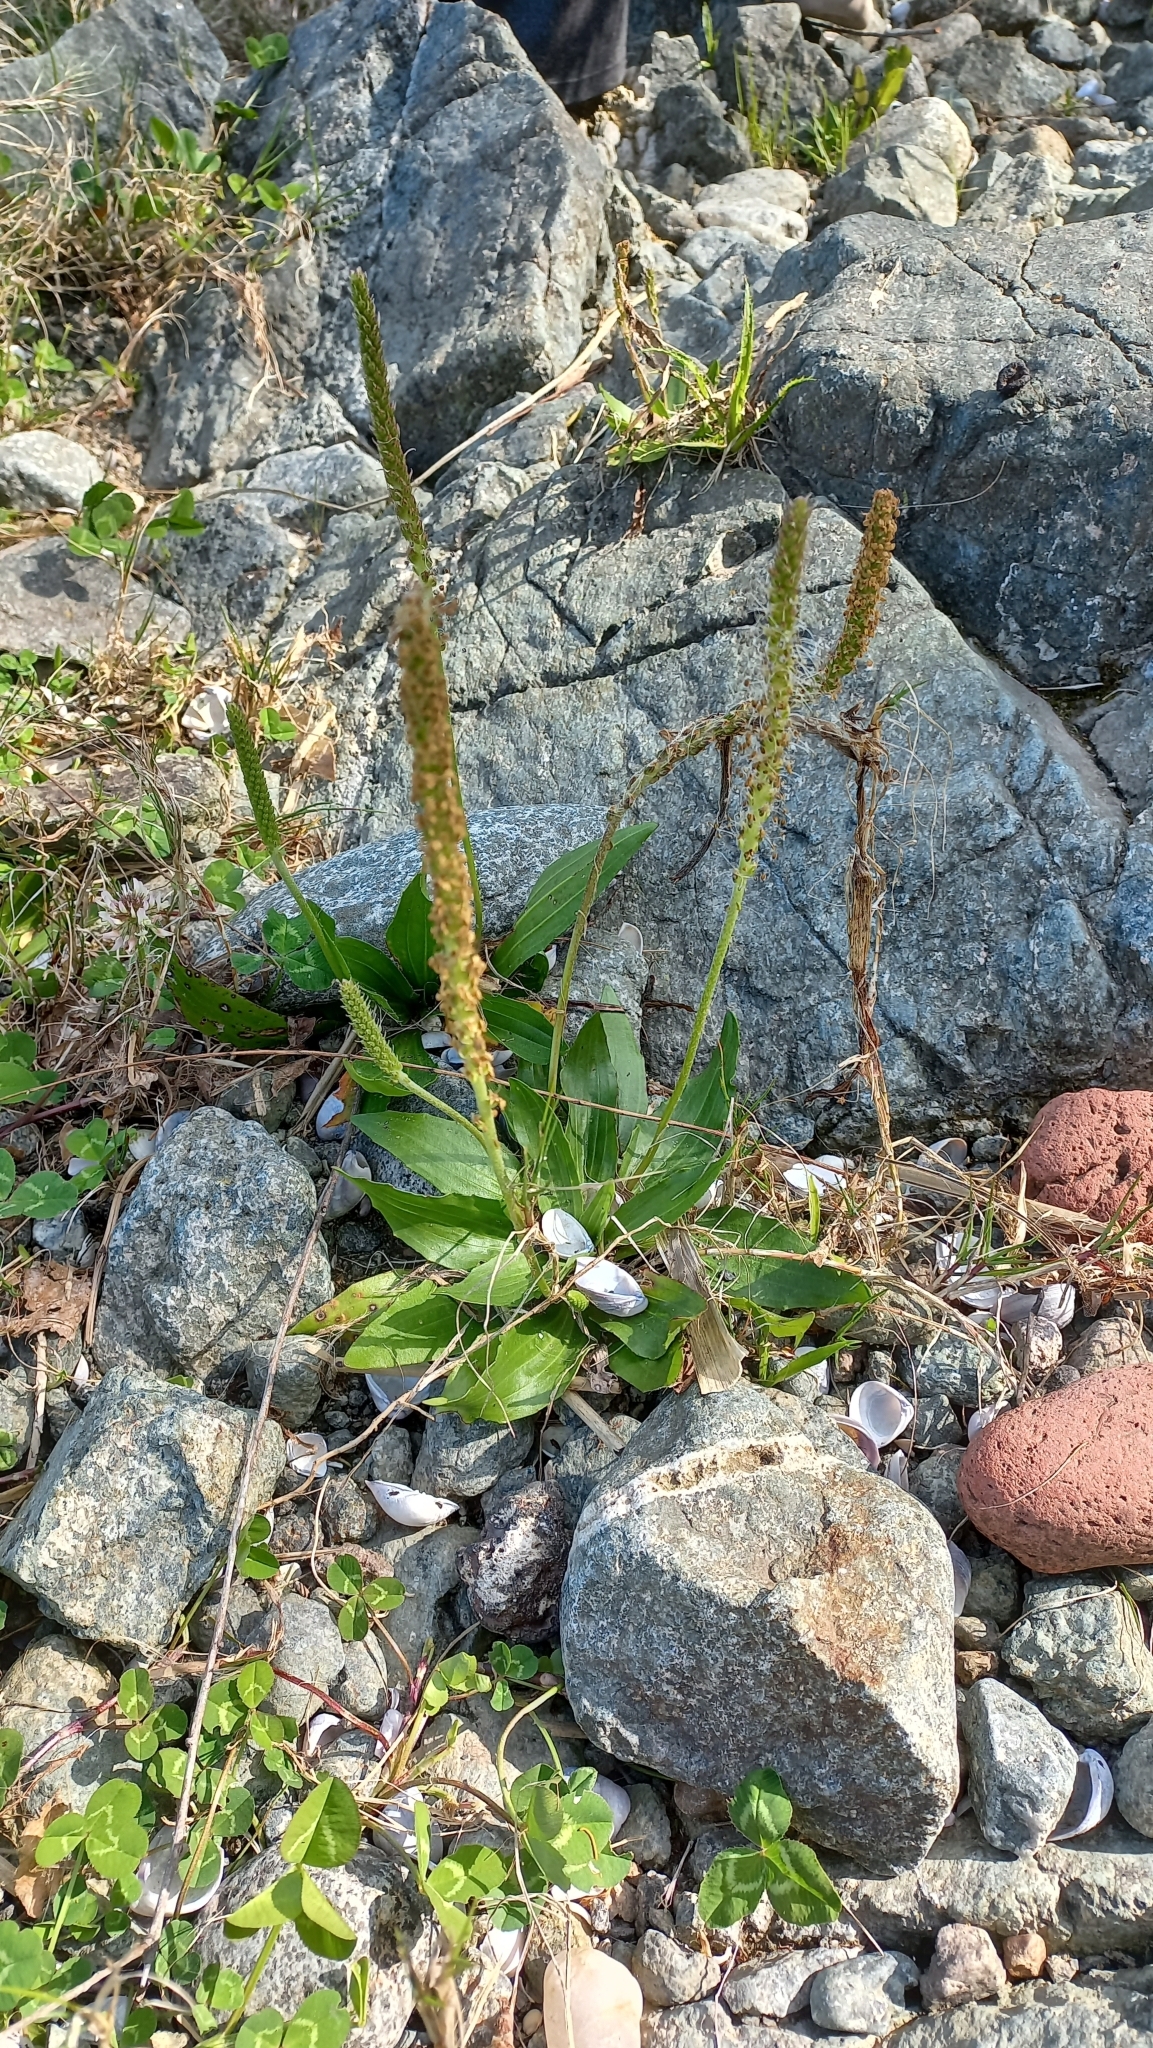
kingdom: Plantae
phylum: Tracheophyta
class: Magnoliopsida
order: Lamiales
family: Plantaginaceae
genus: Plantago
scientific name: Plantago australis
